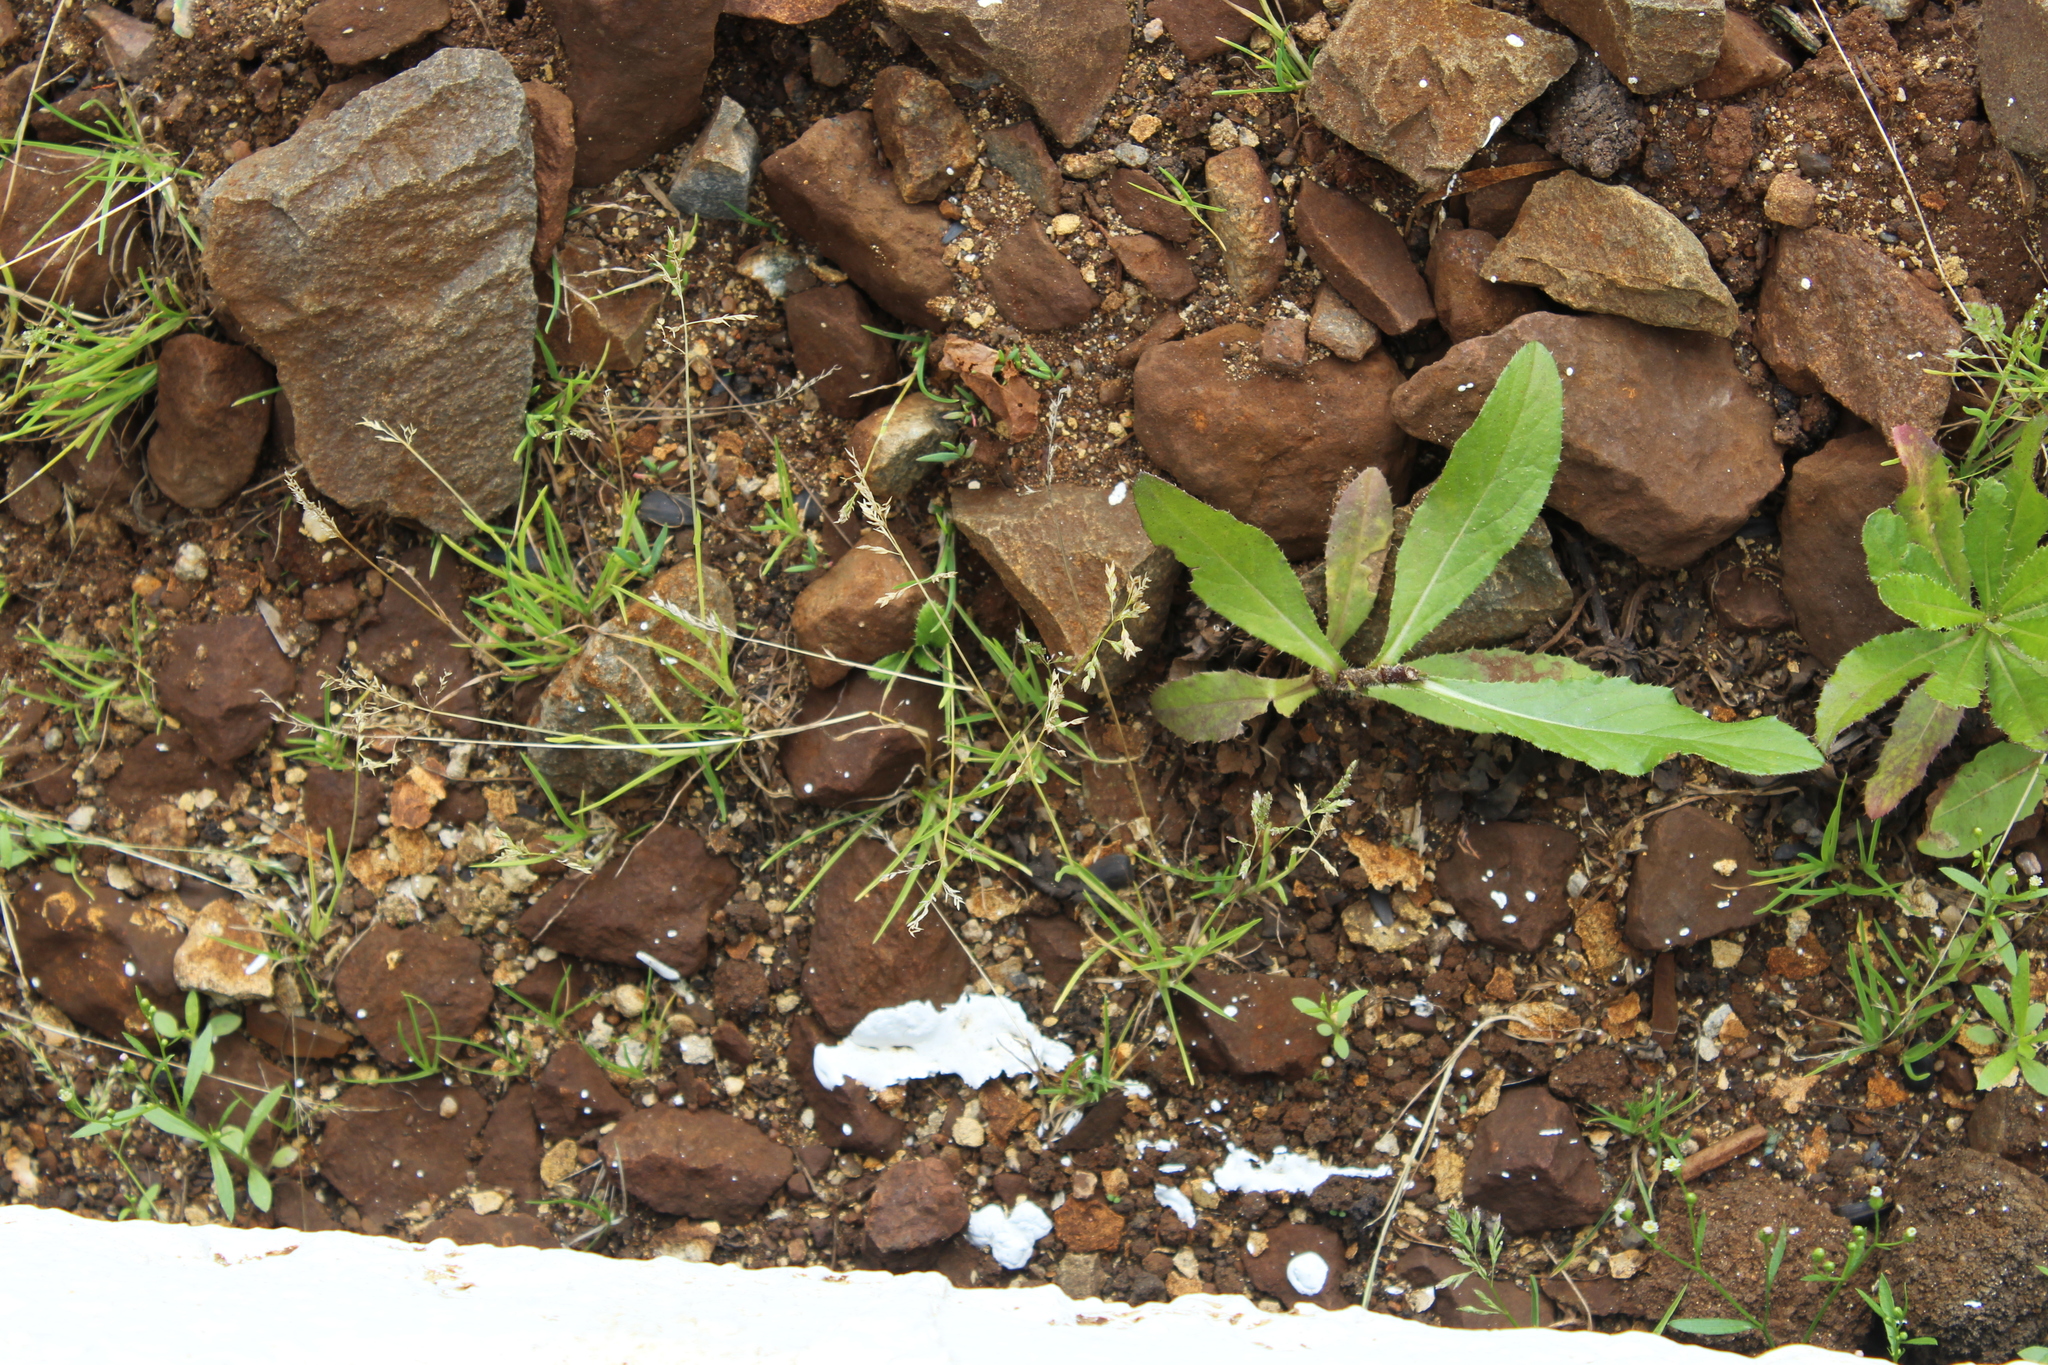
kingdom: Plantae
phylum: Tracheophyta
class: Liliopsida
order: Poales
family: Poaceae
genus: Poa
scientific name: Poa annua
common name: Annual bluegrass
